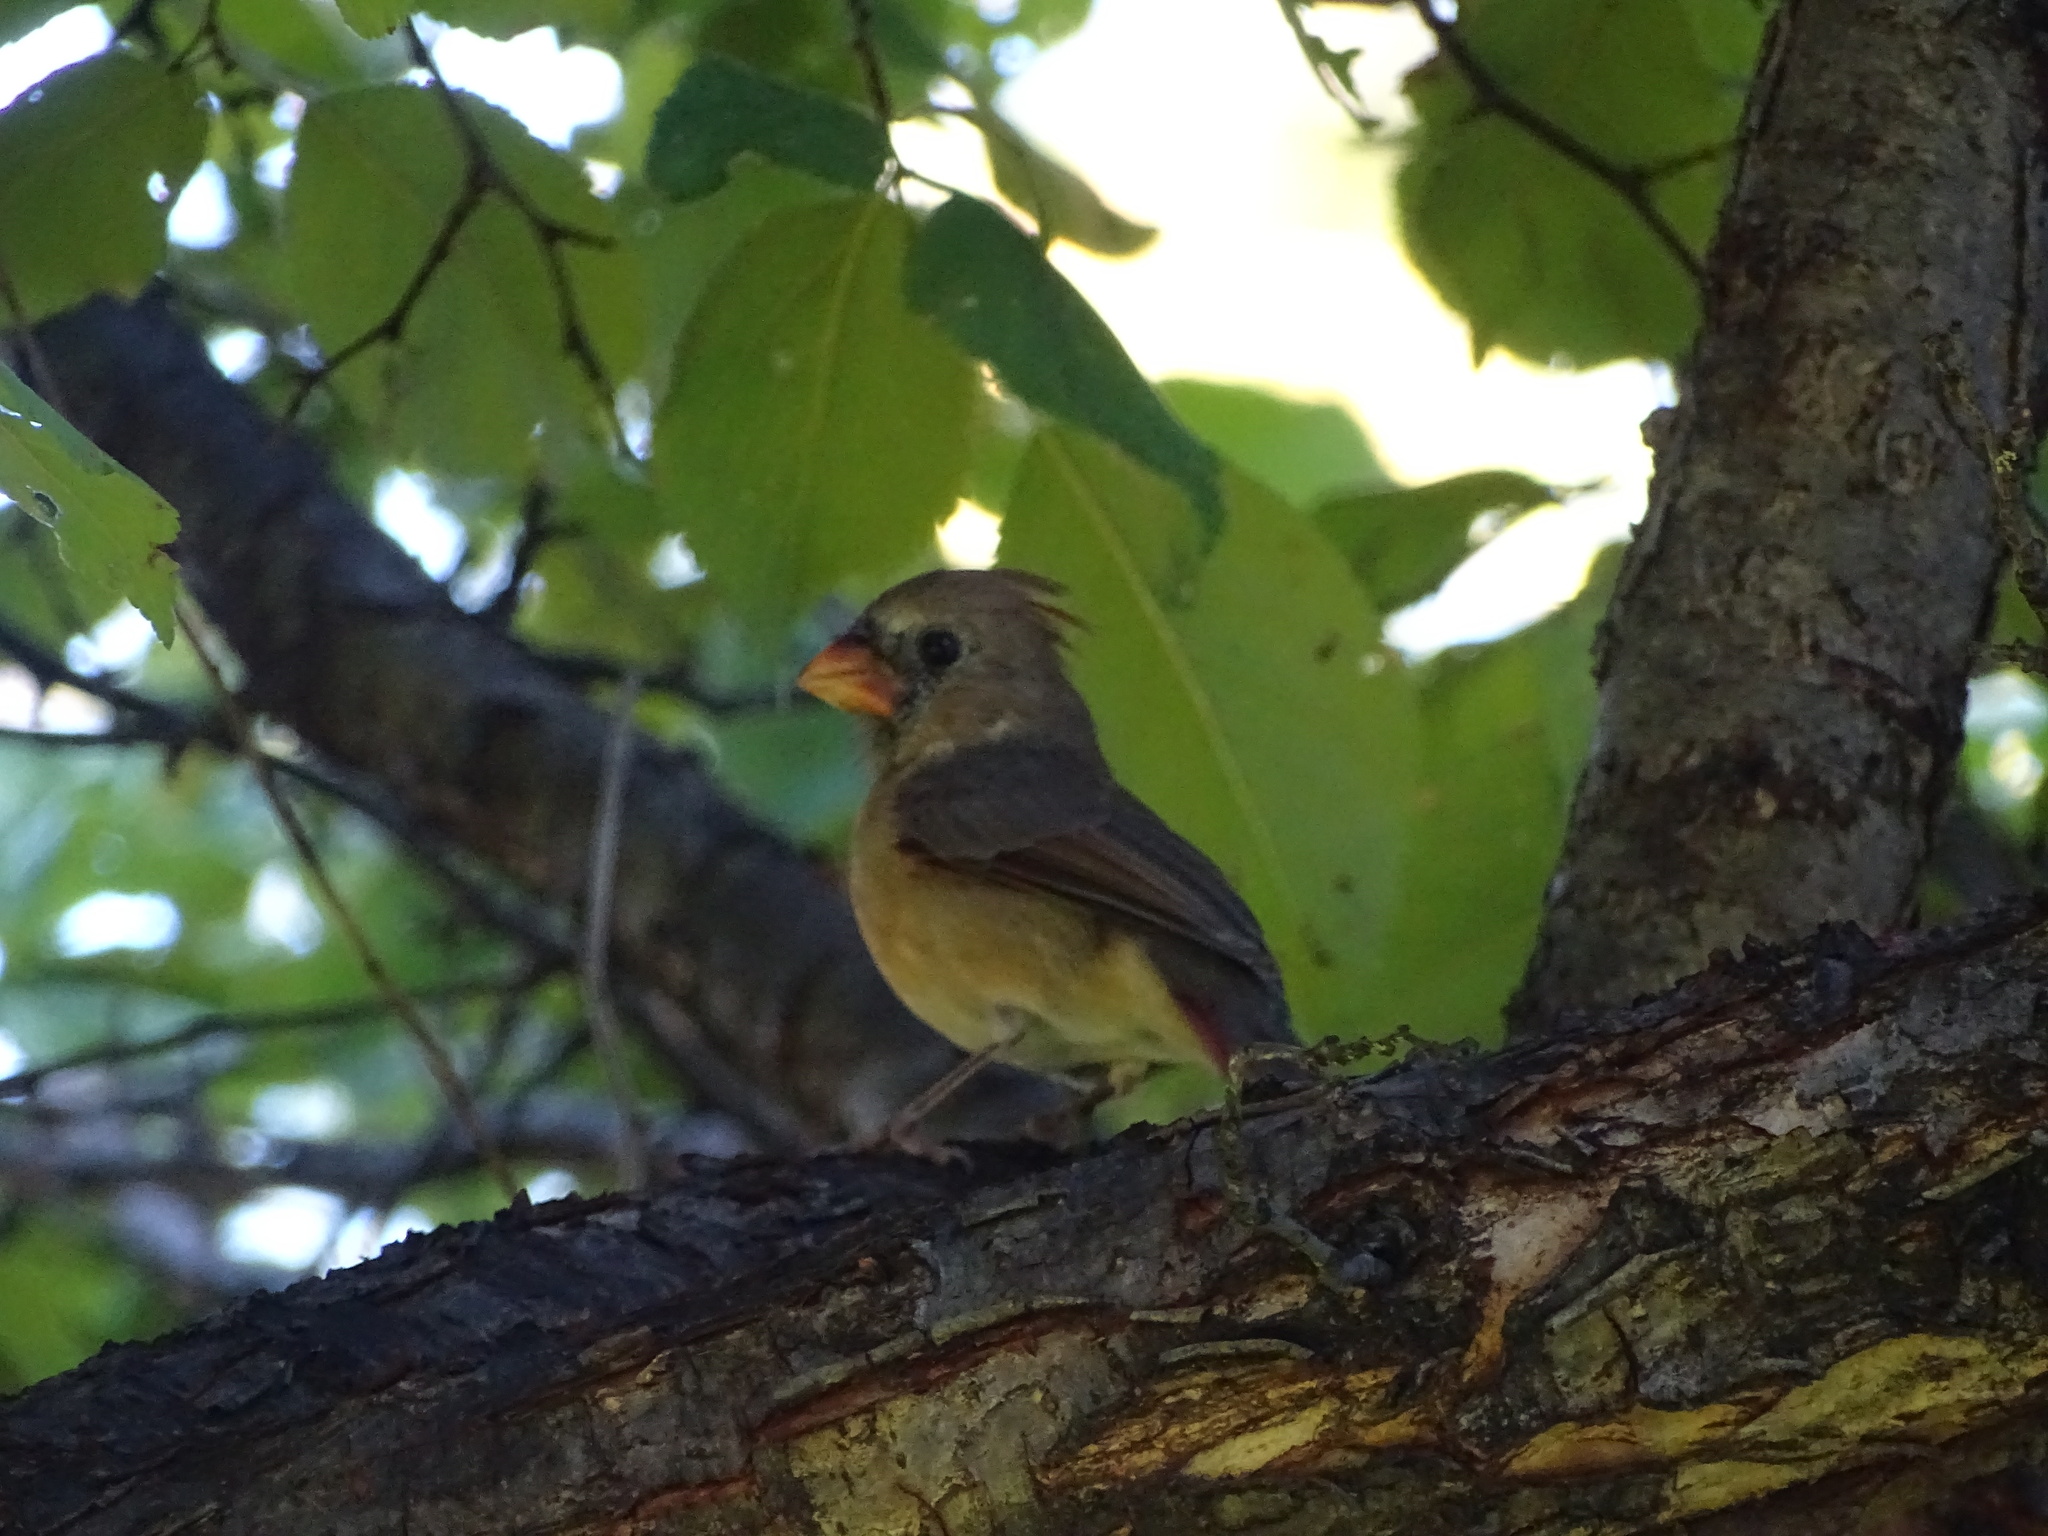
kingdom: Animalia
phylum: Chordata
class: Aves
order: Passeriformes
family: Cardinalidae
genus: Cardinalis
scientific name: Cardinalis cardinalis
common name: Northern cardinal
